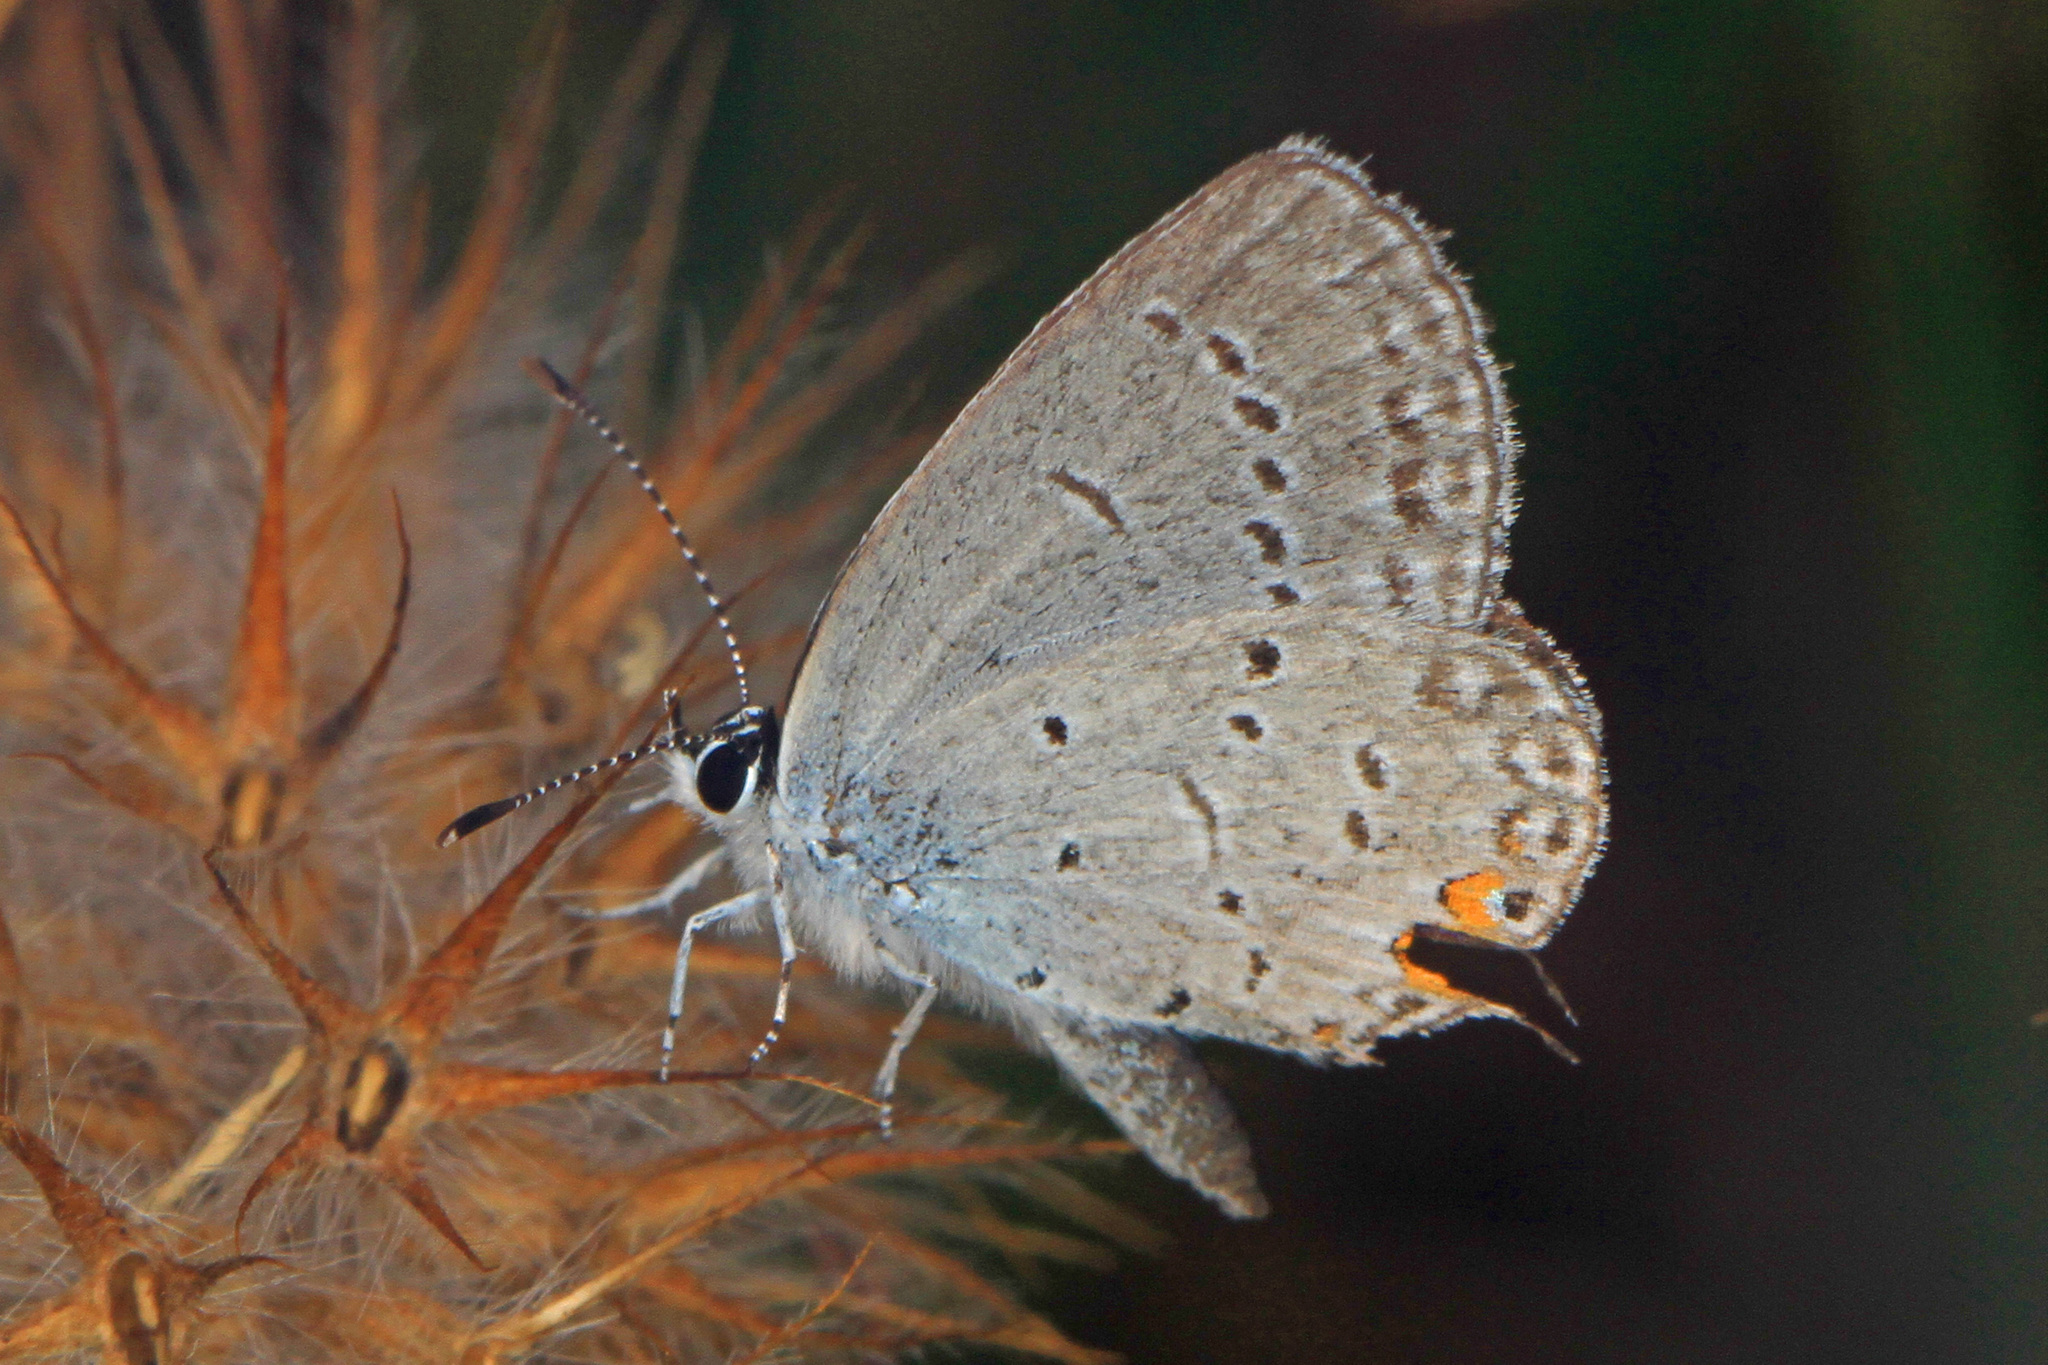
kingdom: Animalia
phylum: Arthropoda
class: Insecta
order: Lepidoptera
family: Lycaenidae
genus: Elkalyce
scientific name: Elkalyce comyntas
